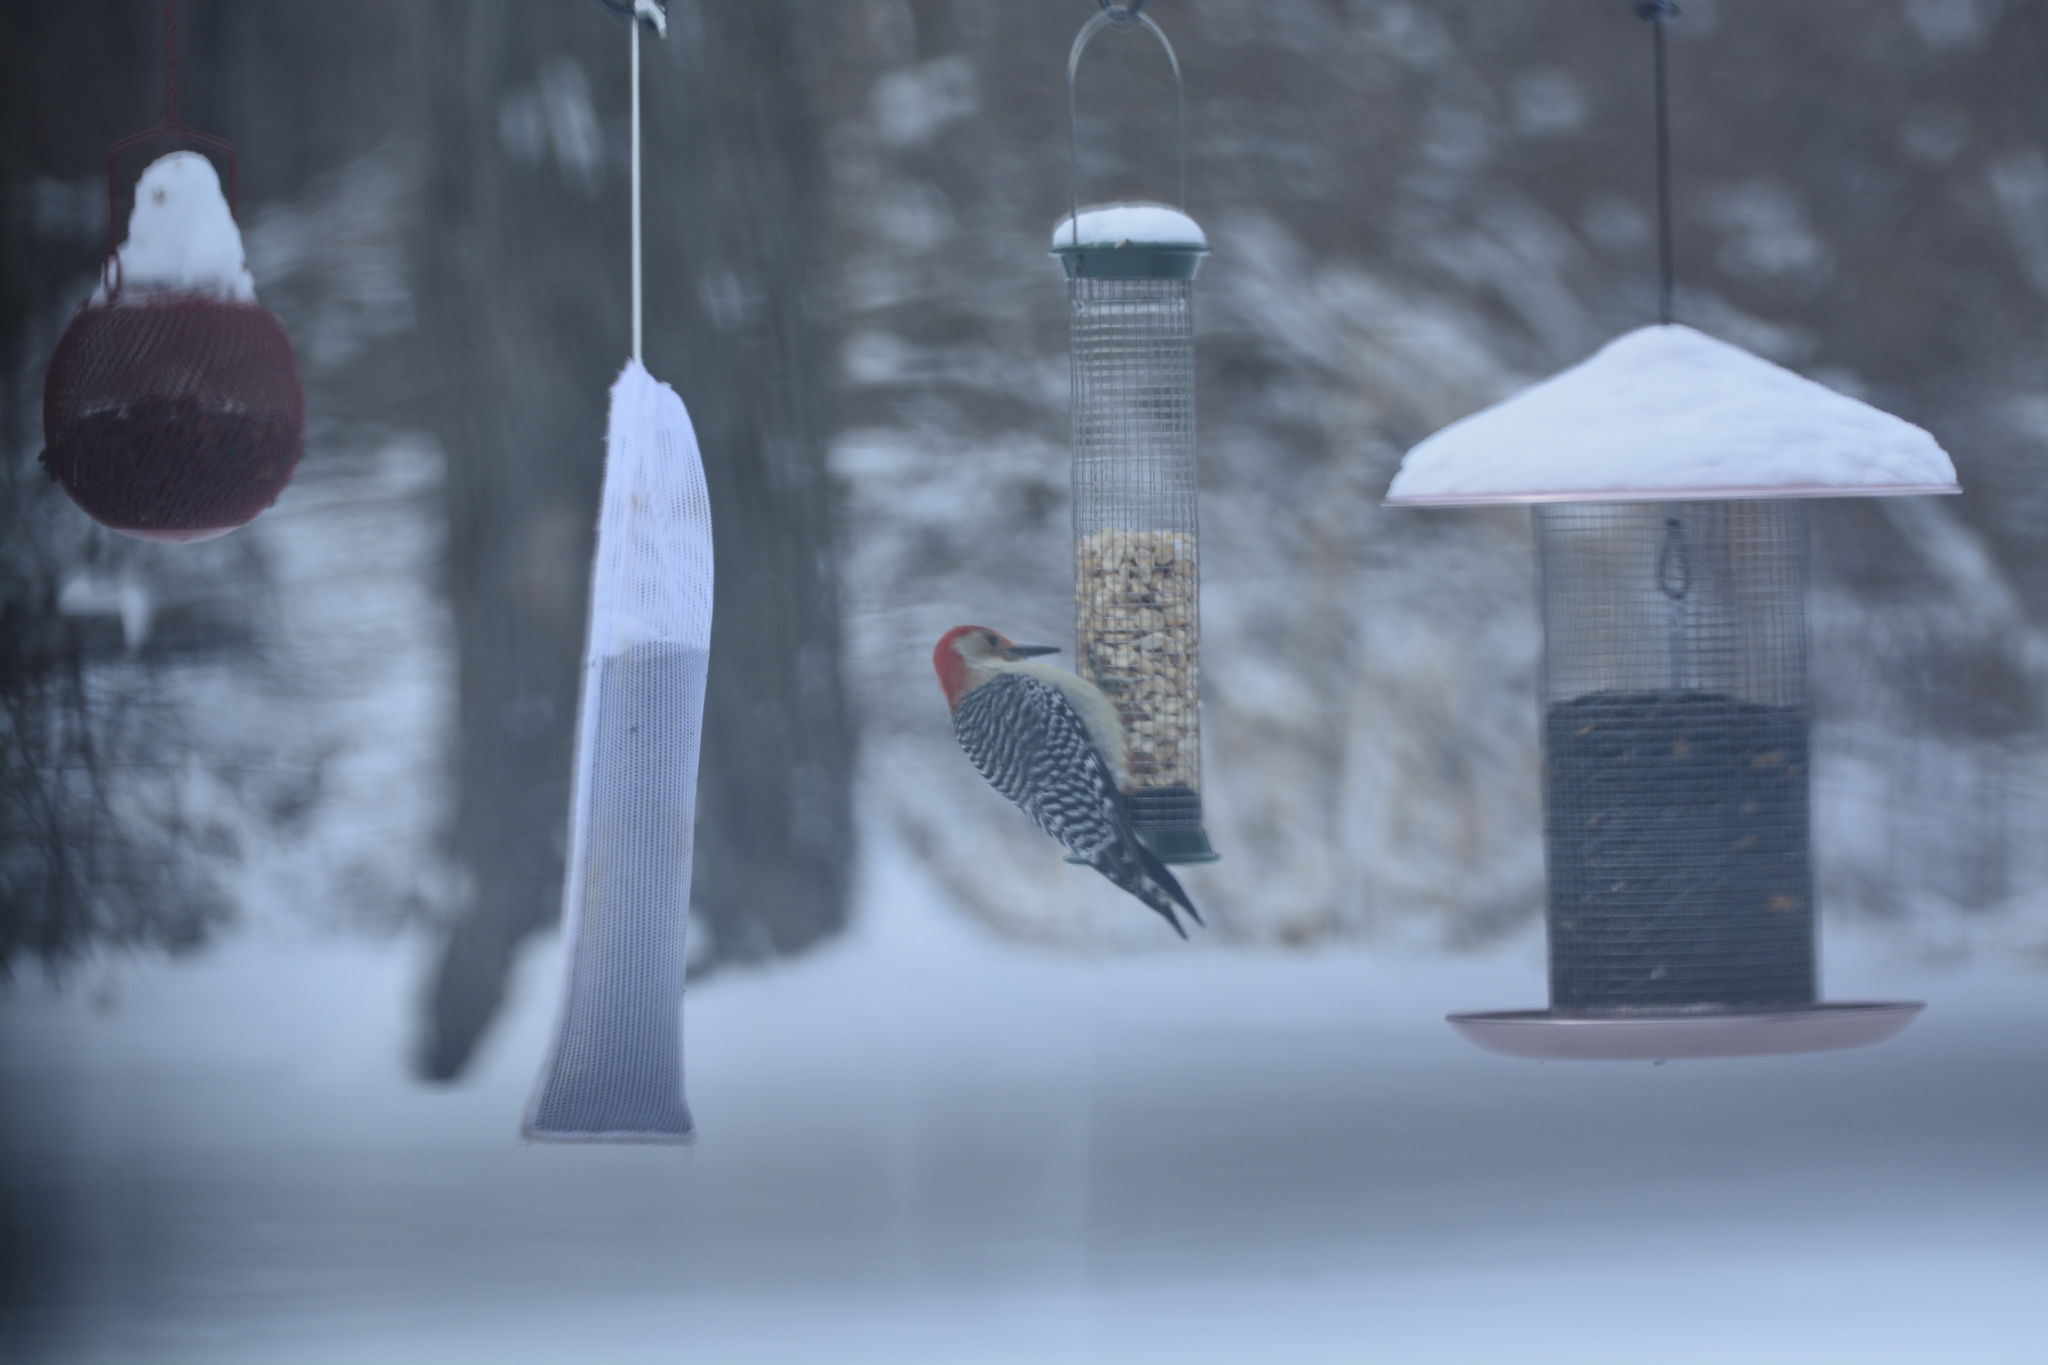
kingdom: Animalia
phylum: Chordata
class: Aves
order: Piciformes
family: Picidae
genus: Melanerpes
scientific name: Melanerpes carolinus
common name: Red-bellied woodpecker
